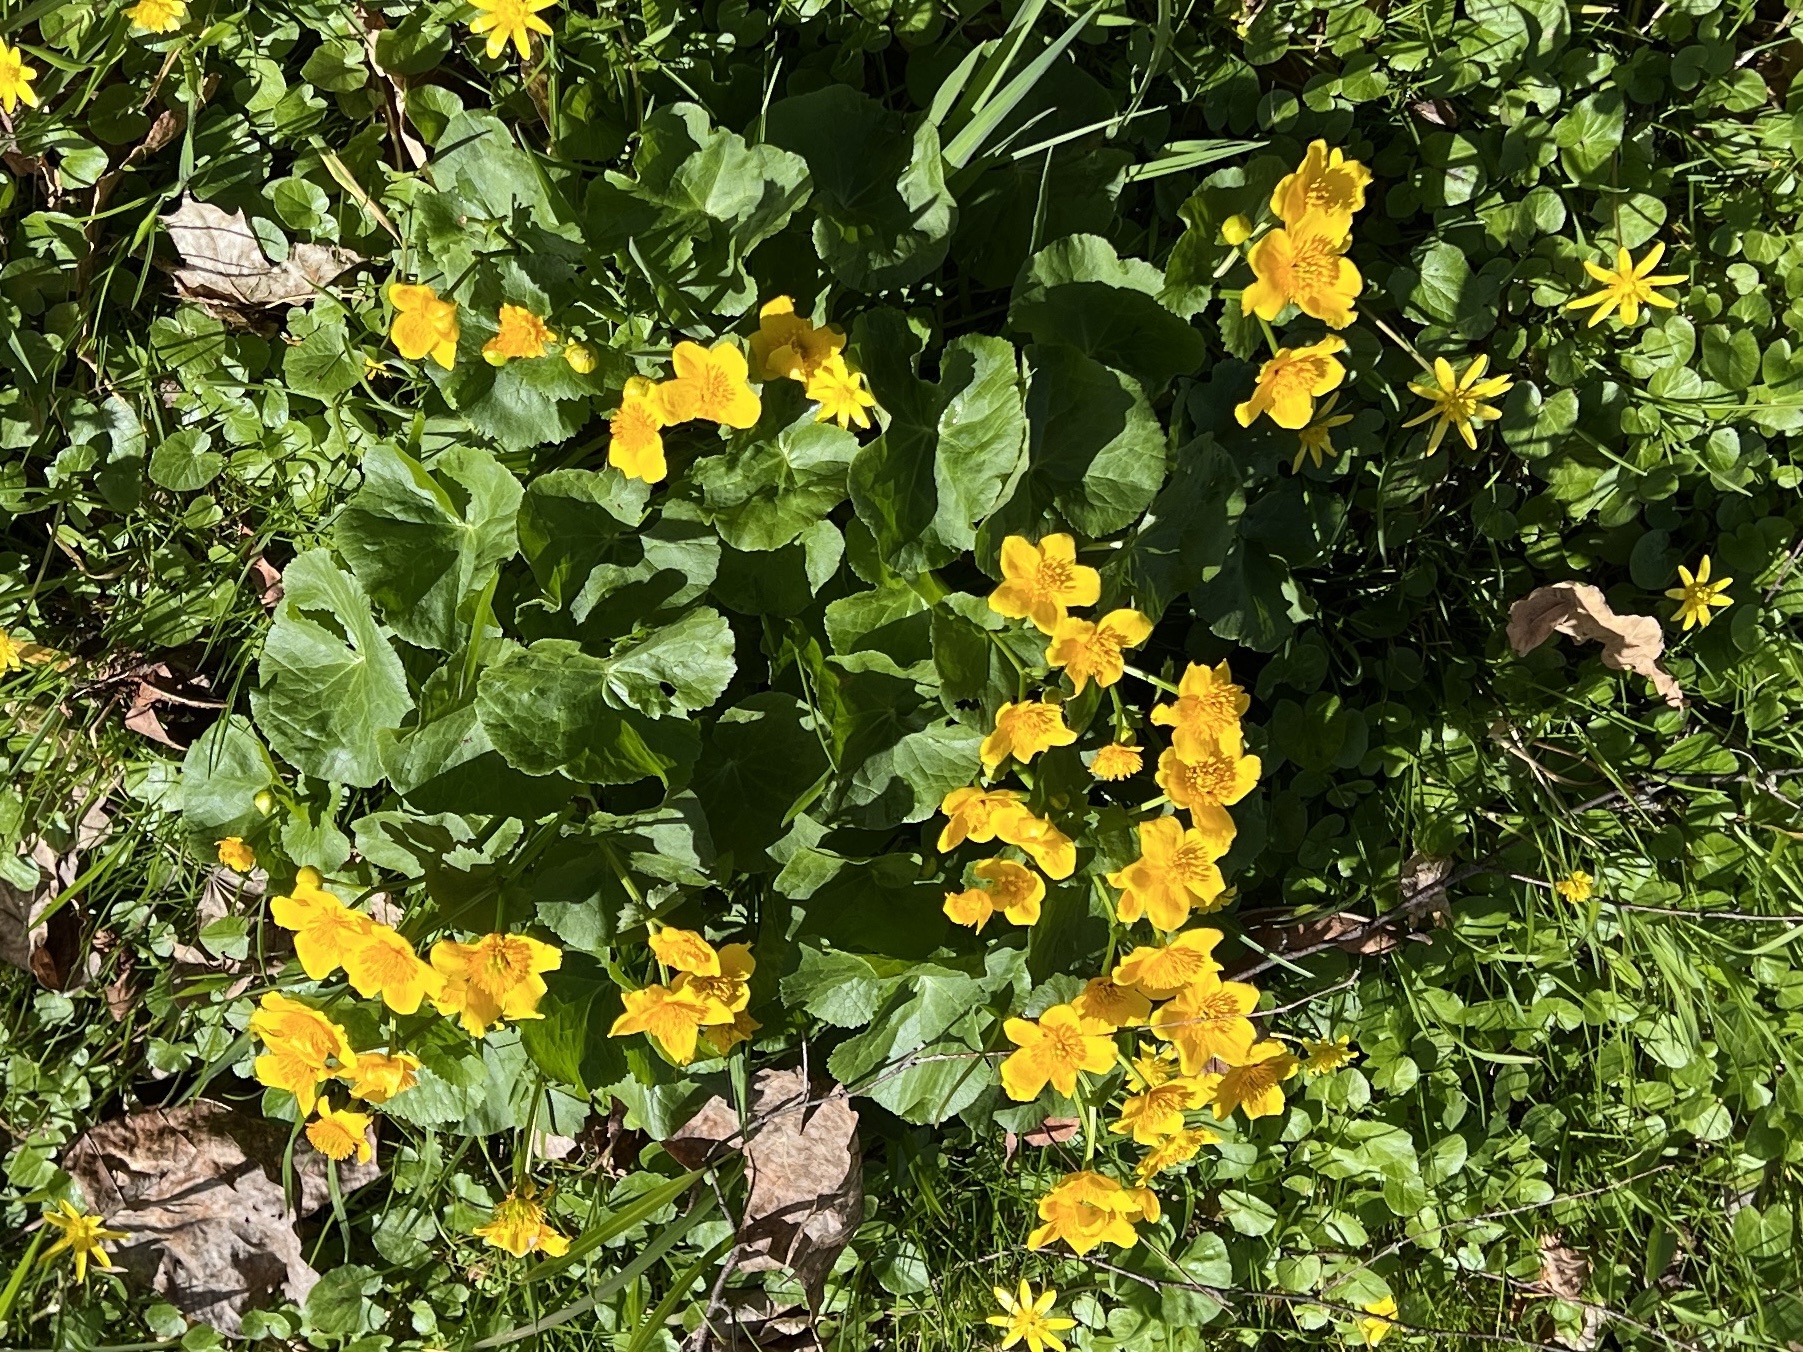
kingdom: Plantae
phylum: Tracheophyta
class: Magnoliopsida
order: Ranunculales
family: Ranunculaceae
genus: Caltha
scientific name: Caltha palustris
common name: Marsh marigold
